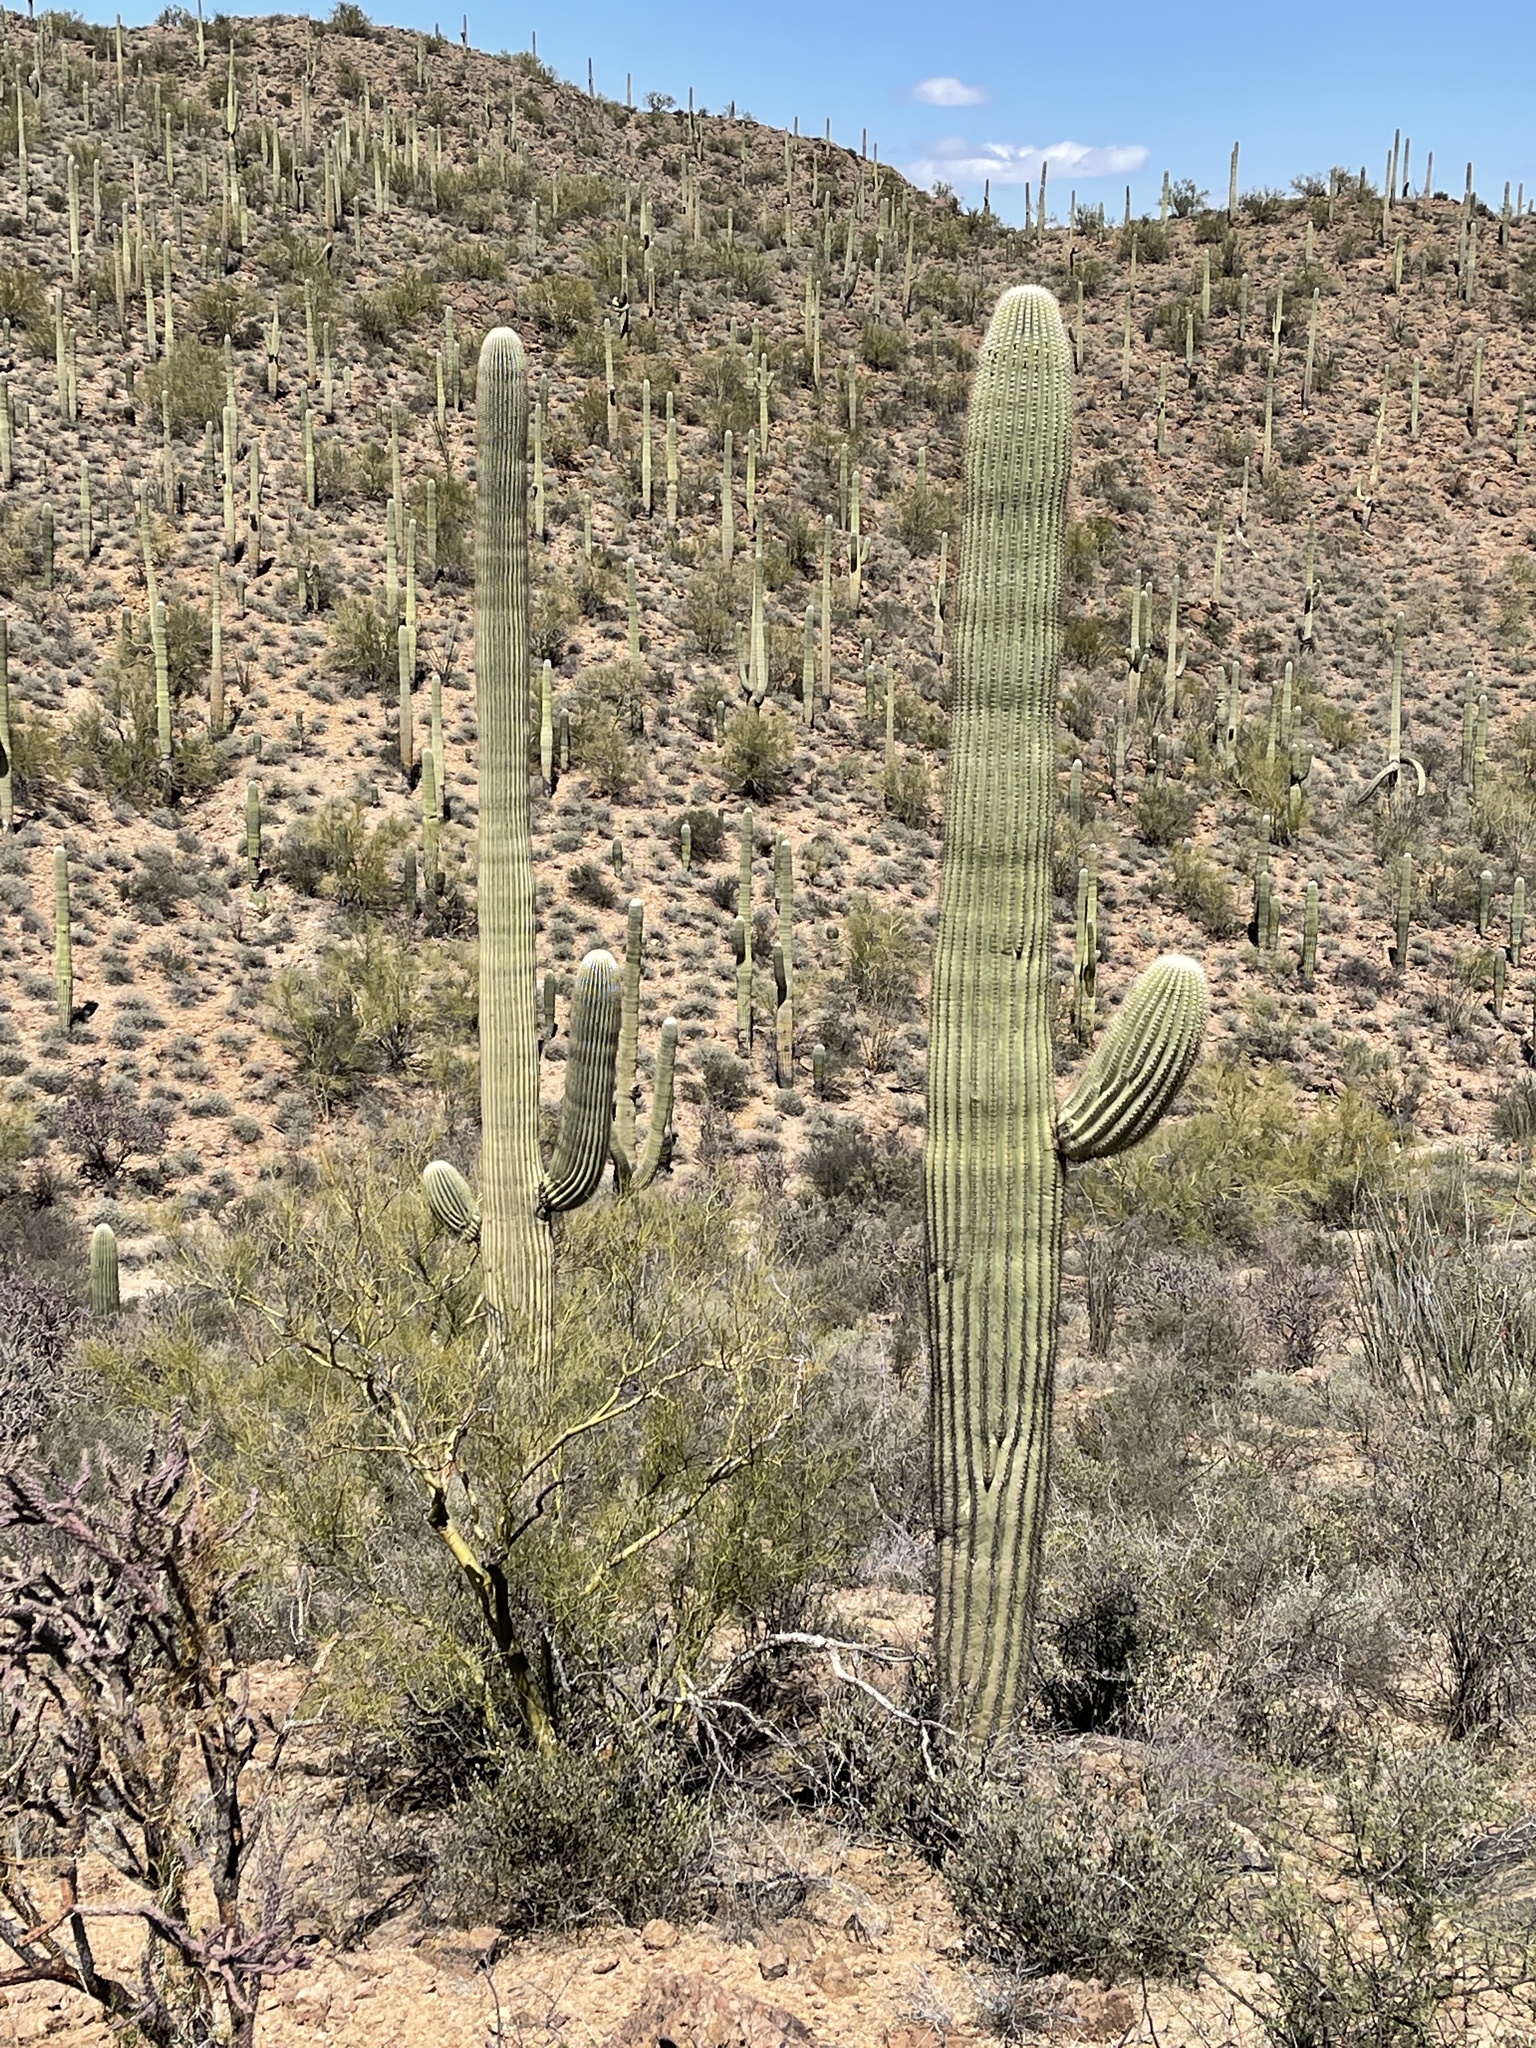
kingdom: Plantae
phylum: Tracheophyta
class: Magnoliopsida
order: Caryophyllales
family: Cactaceae
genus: Carnegiea
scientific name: Carnegiea gigantea
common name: Saguaro
